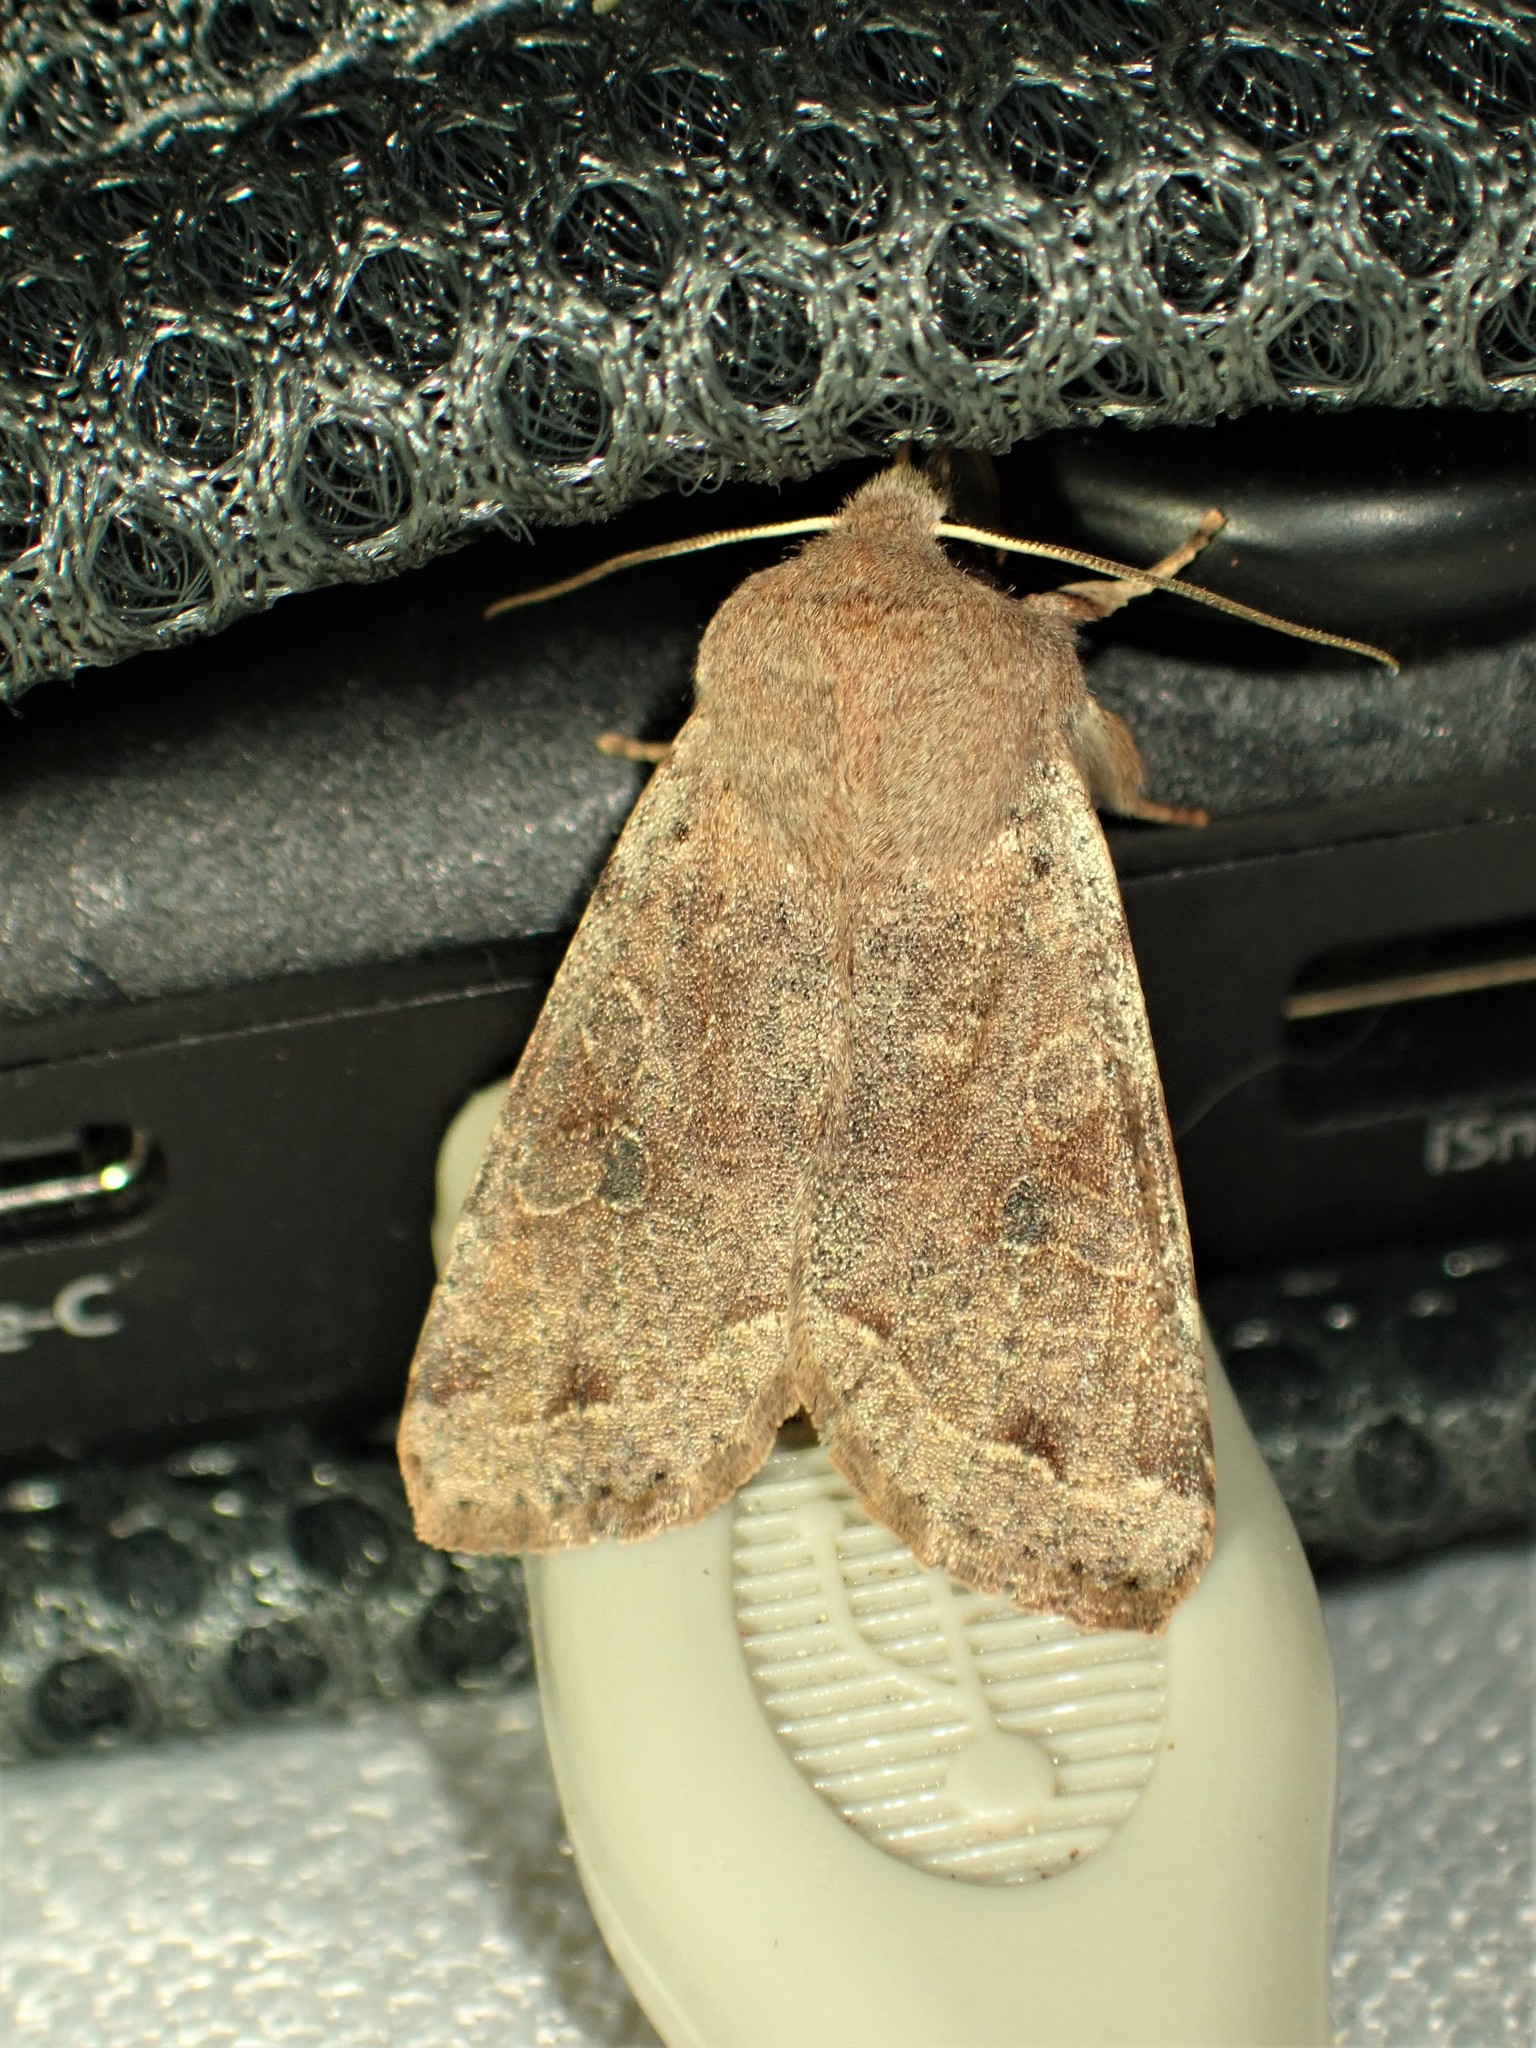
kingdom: Animalia
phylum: Arthropoda
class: Insecta
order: Lepidoptera
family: Noctuidae
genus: Orthosia
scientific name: Orthosia hibisci
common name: Green fruitworm
